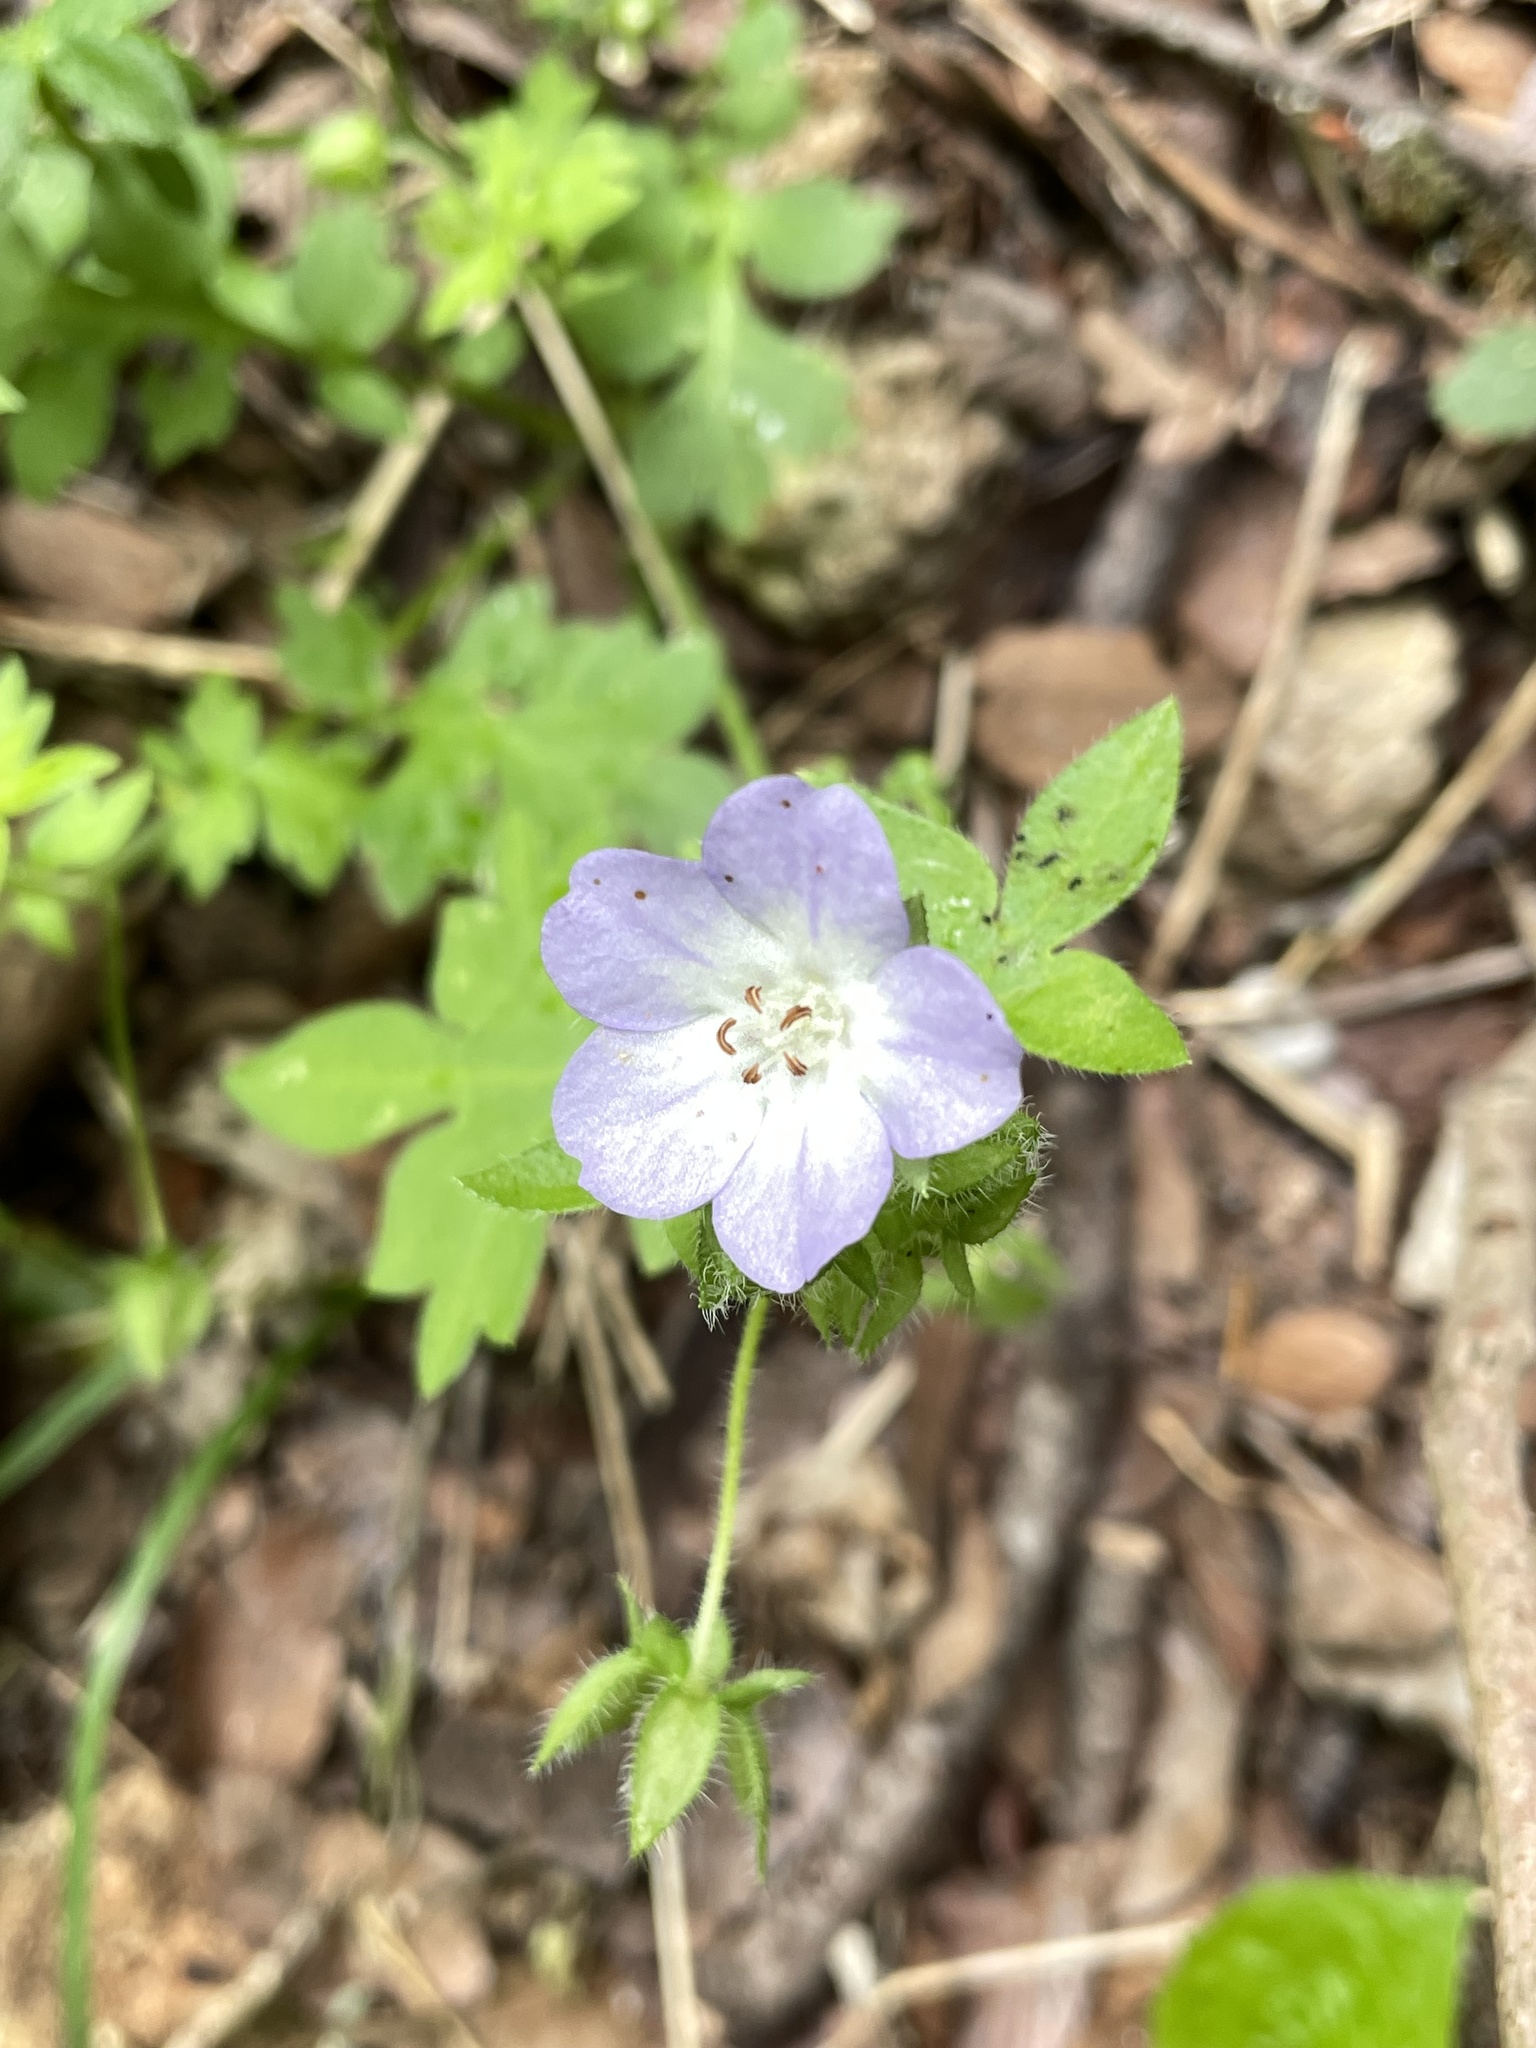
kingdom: Plantae
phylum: Tracheophyta
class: Magnoliopsida
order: Boraginales
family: Hydrophyllaceae
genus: Nemophila
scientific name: Nemophila phacelioides
